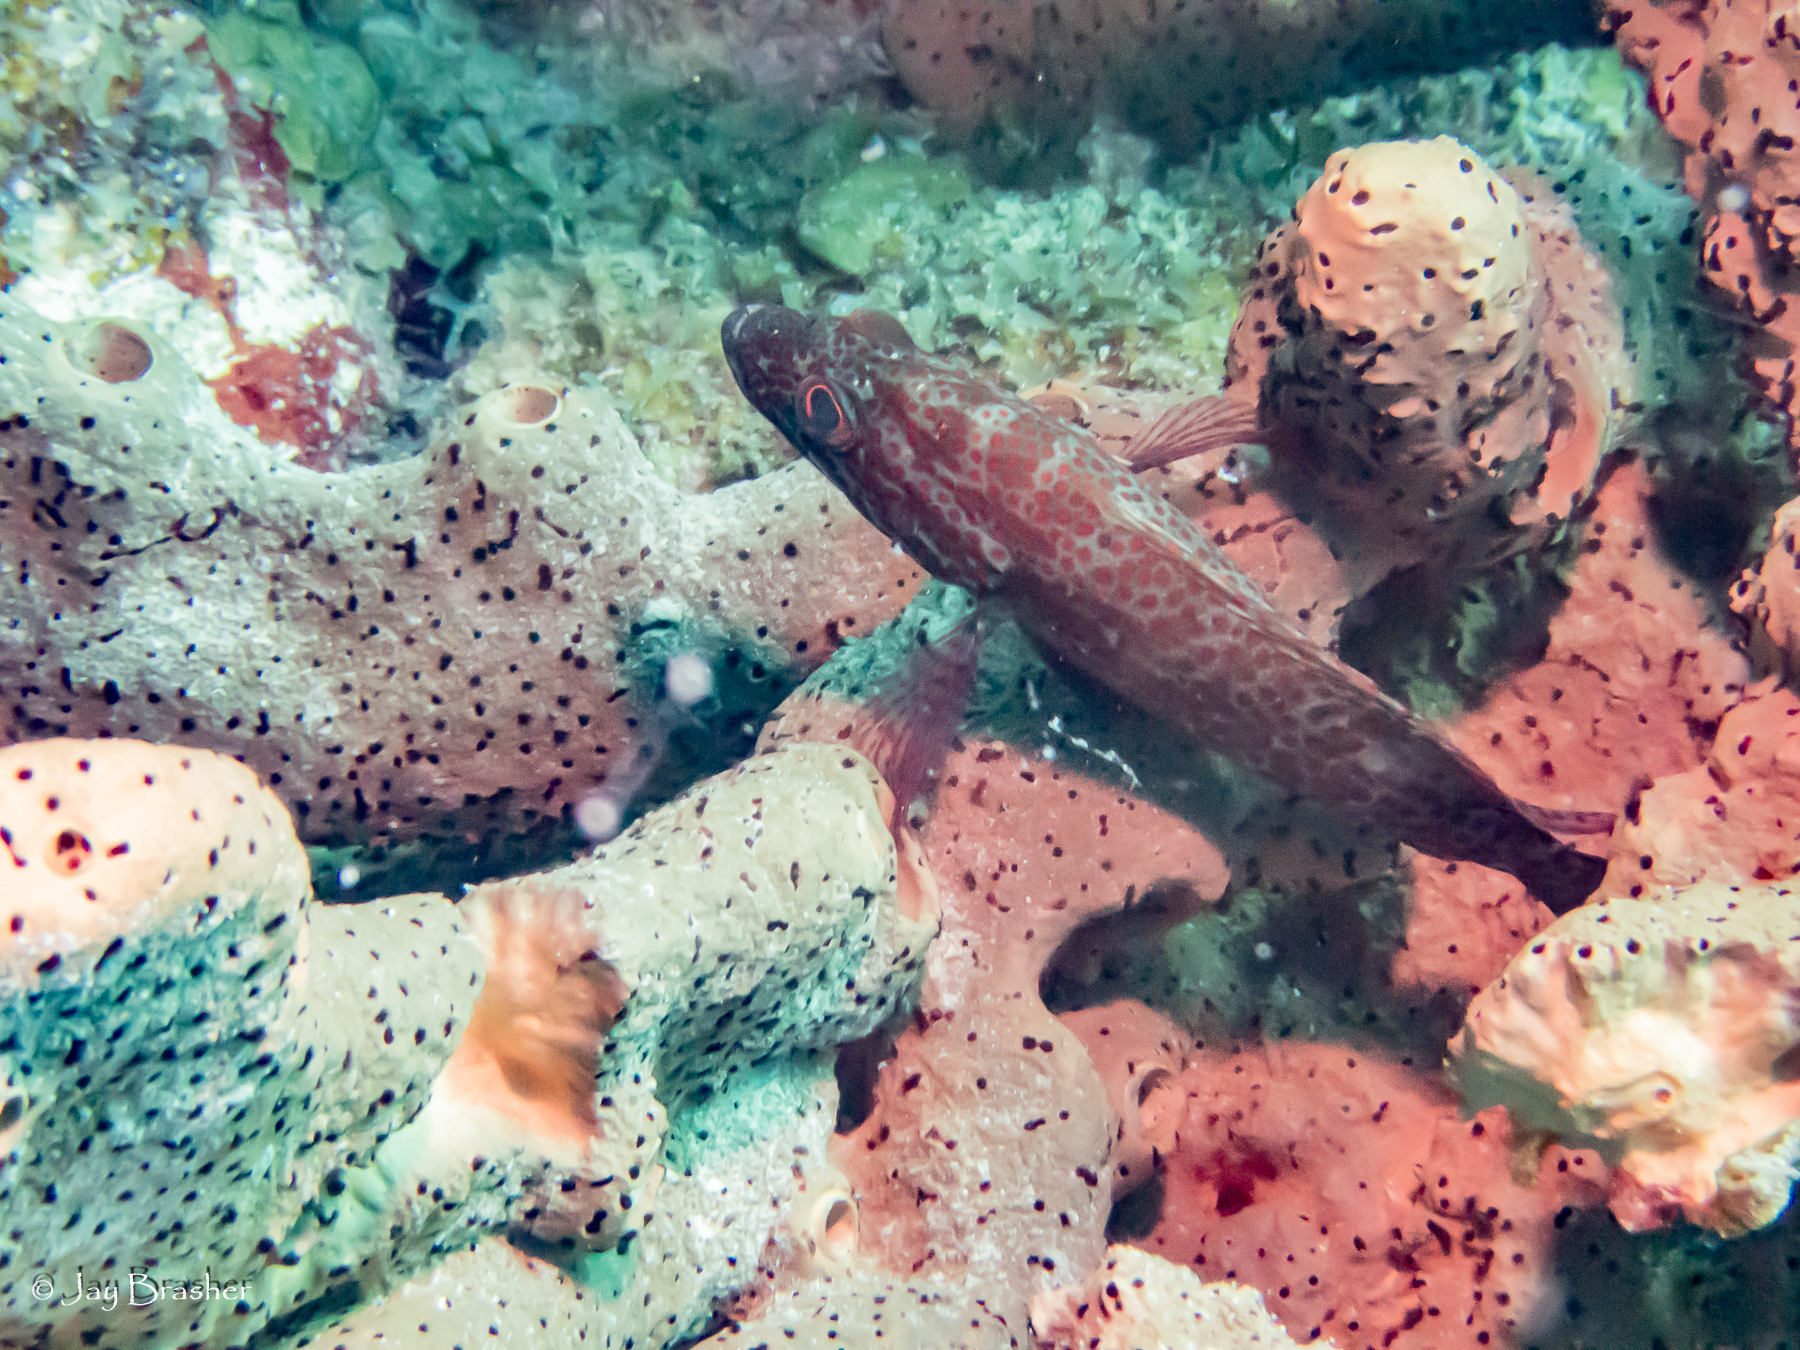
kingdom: Animalia
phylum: Porifera
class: Demospongiae
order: Agelasida
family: Agelasidae
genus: Agelas
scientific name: Agelas conifera
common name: Brown tube sponge
